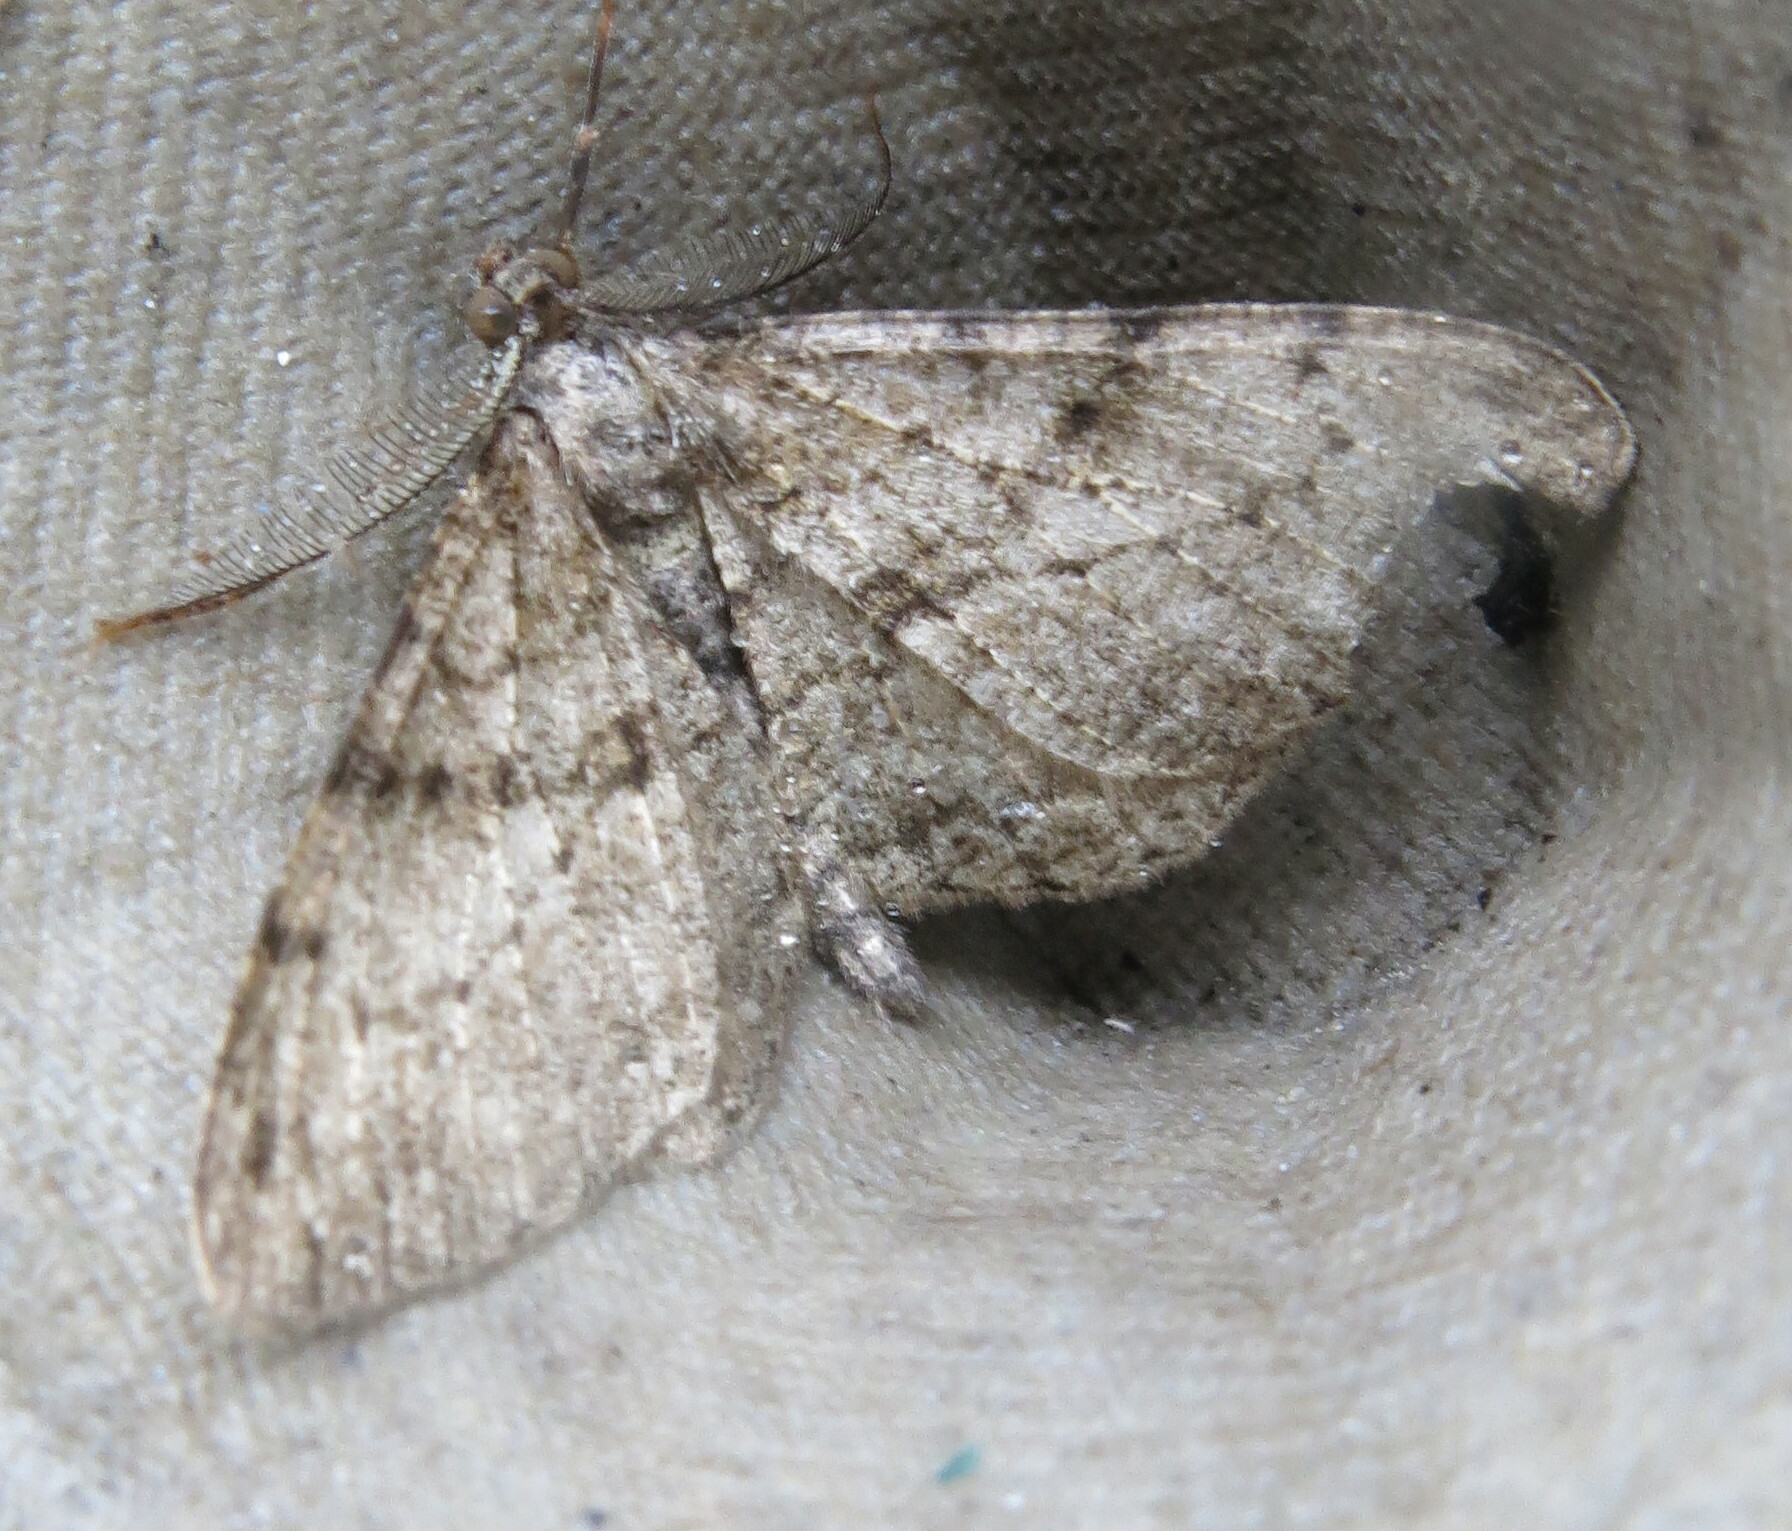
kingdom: Animalia
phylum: Arthropoda
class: Insecta
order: Lepidoptera
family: Geometridae
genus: Peribatodes
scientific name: Peribatodes rhomboidaria
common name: Willow beauty
